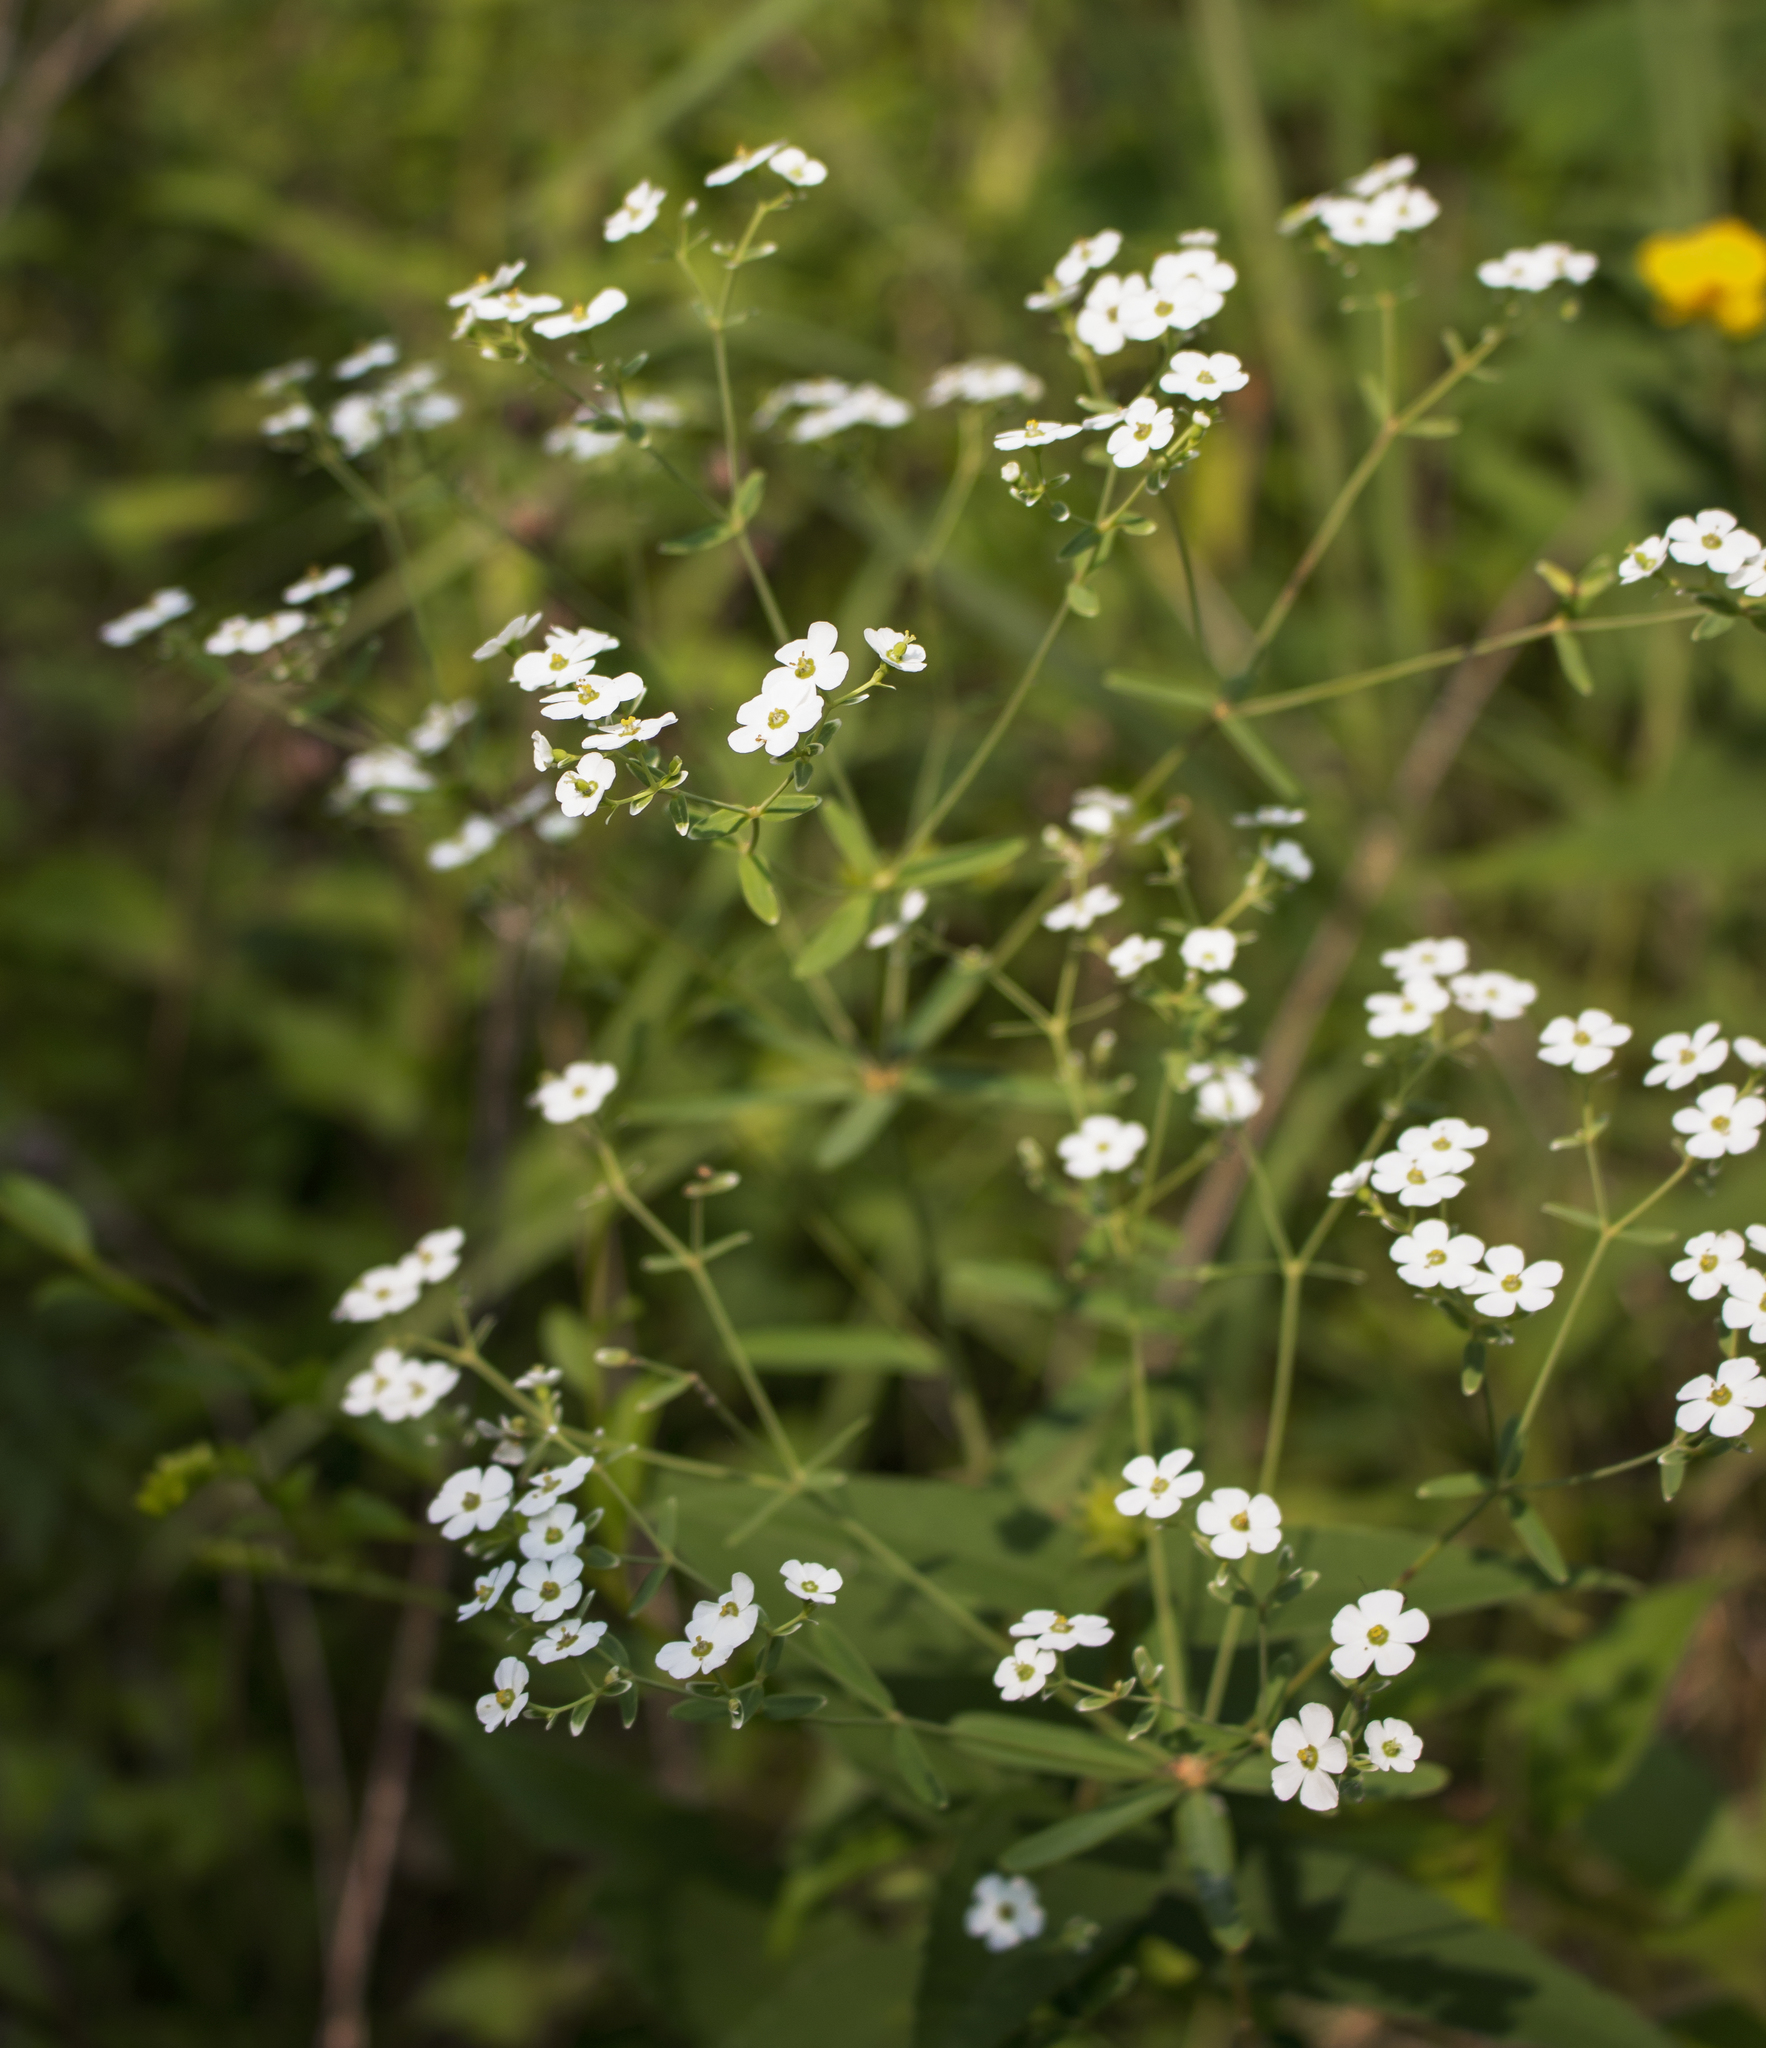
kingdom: Plantae
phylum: Tracheophyta
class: Magnoliopsida
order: Malpighiales
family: Euphorbiaceae
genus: Euphorbia
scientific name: Euphorbia corollata
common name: Flowering spurge
